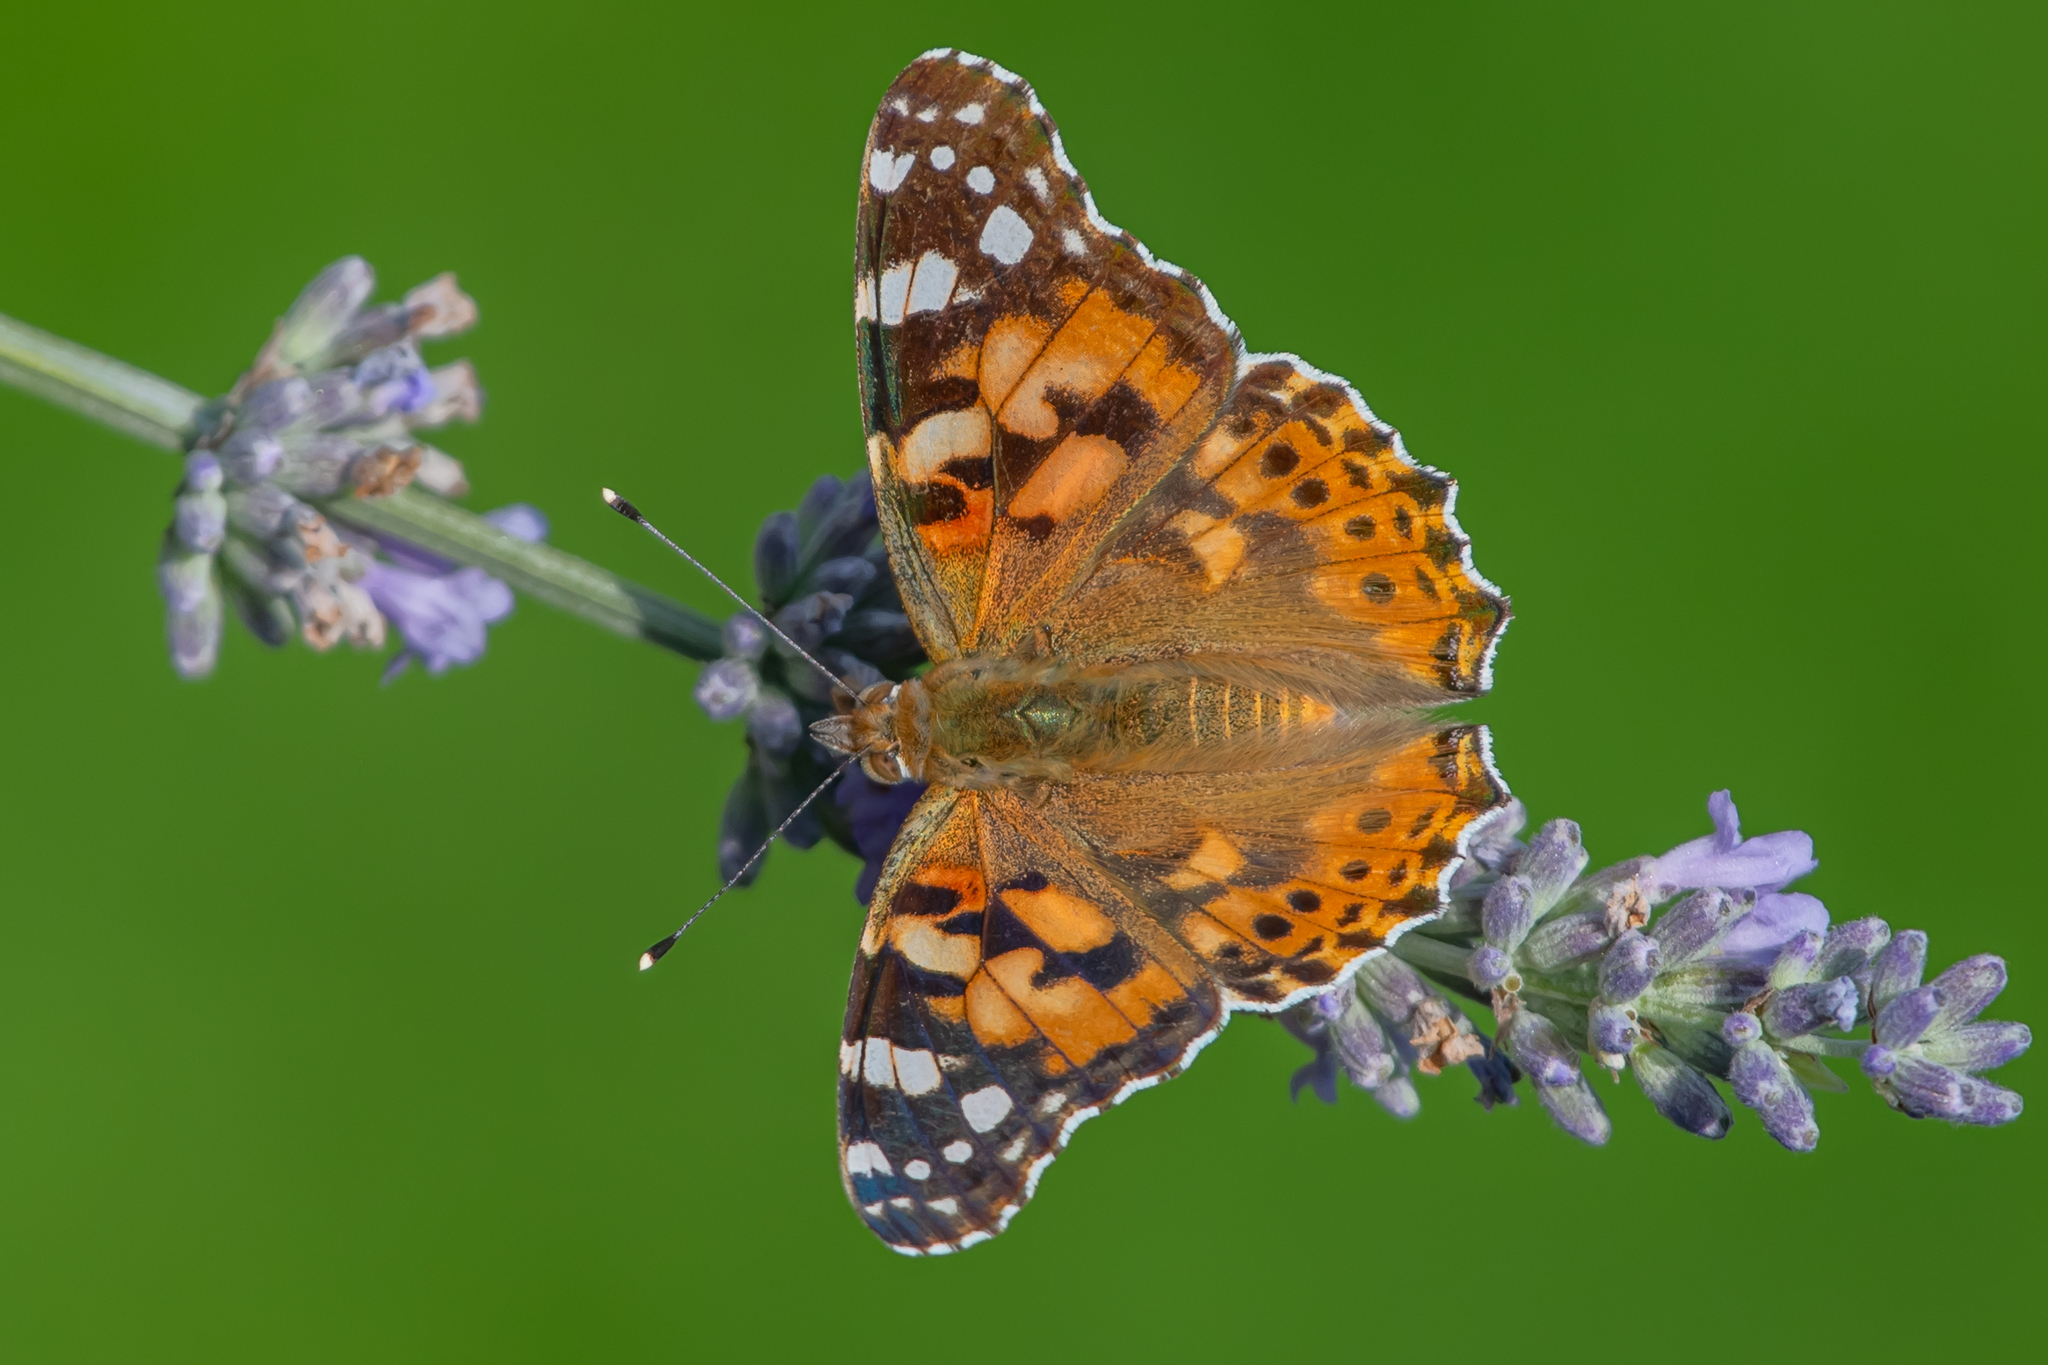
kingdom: Animalia
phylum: Arthropoda
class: Insecta
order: Lepidoptera
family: Nymphalidae
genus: Vanessa
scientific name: Vanessa cardui
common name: Painted lady
